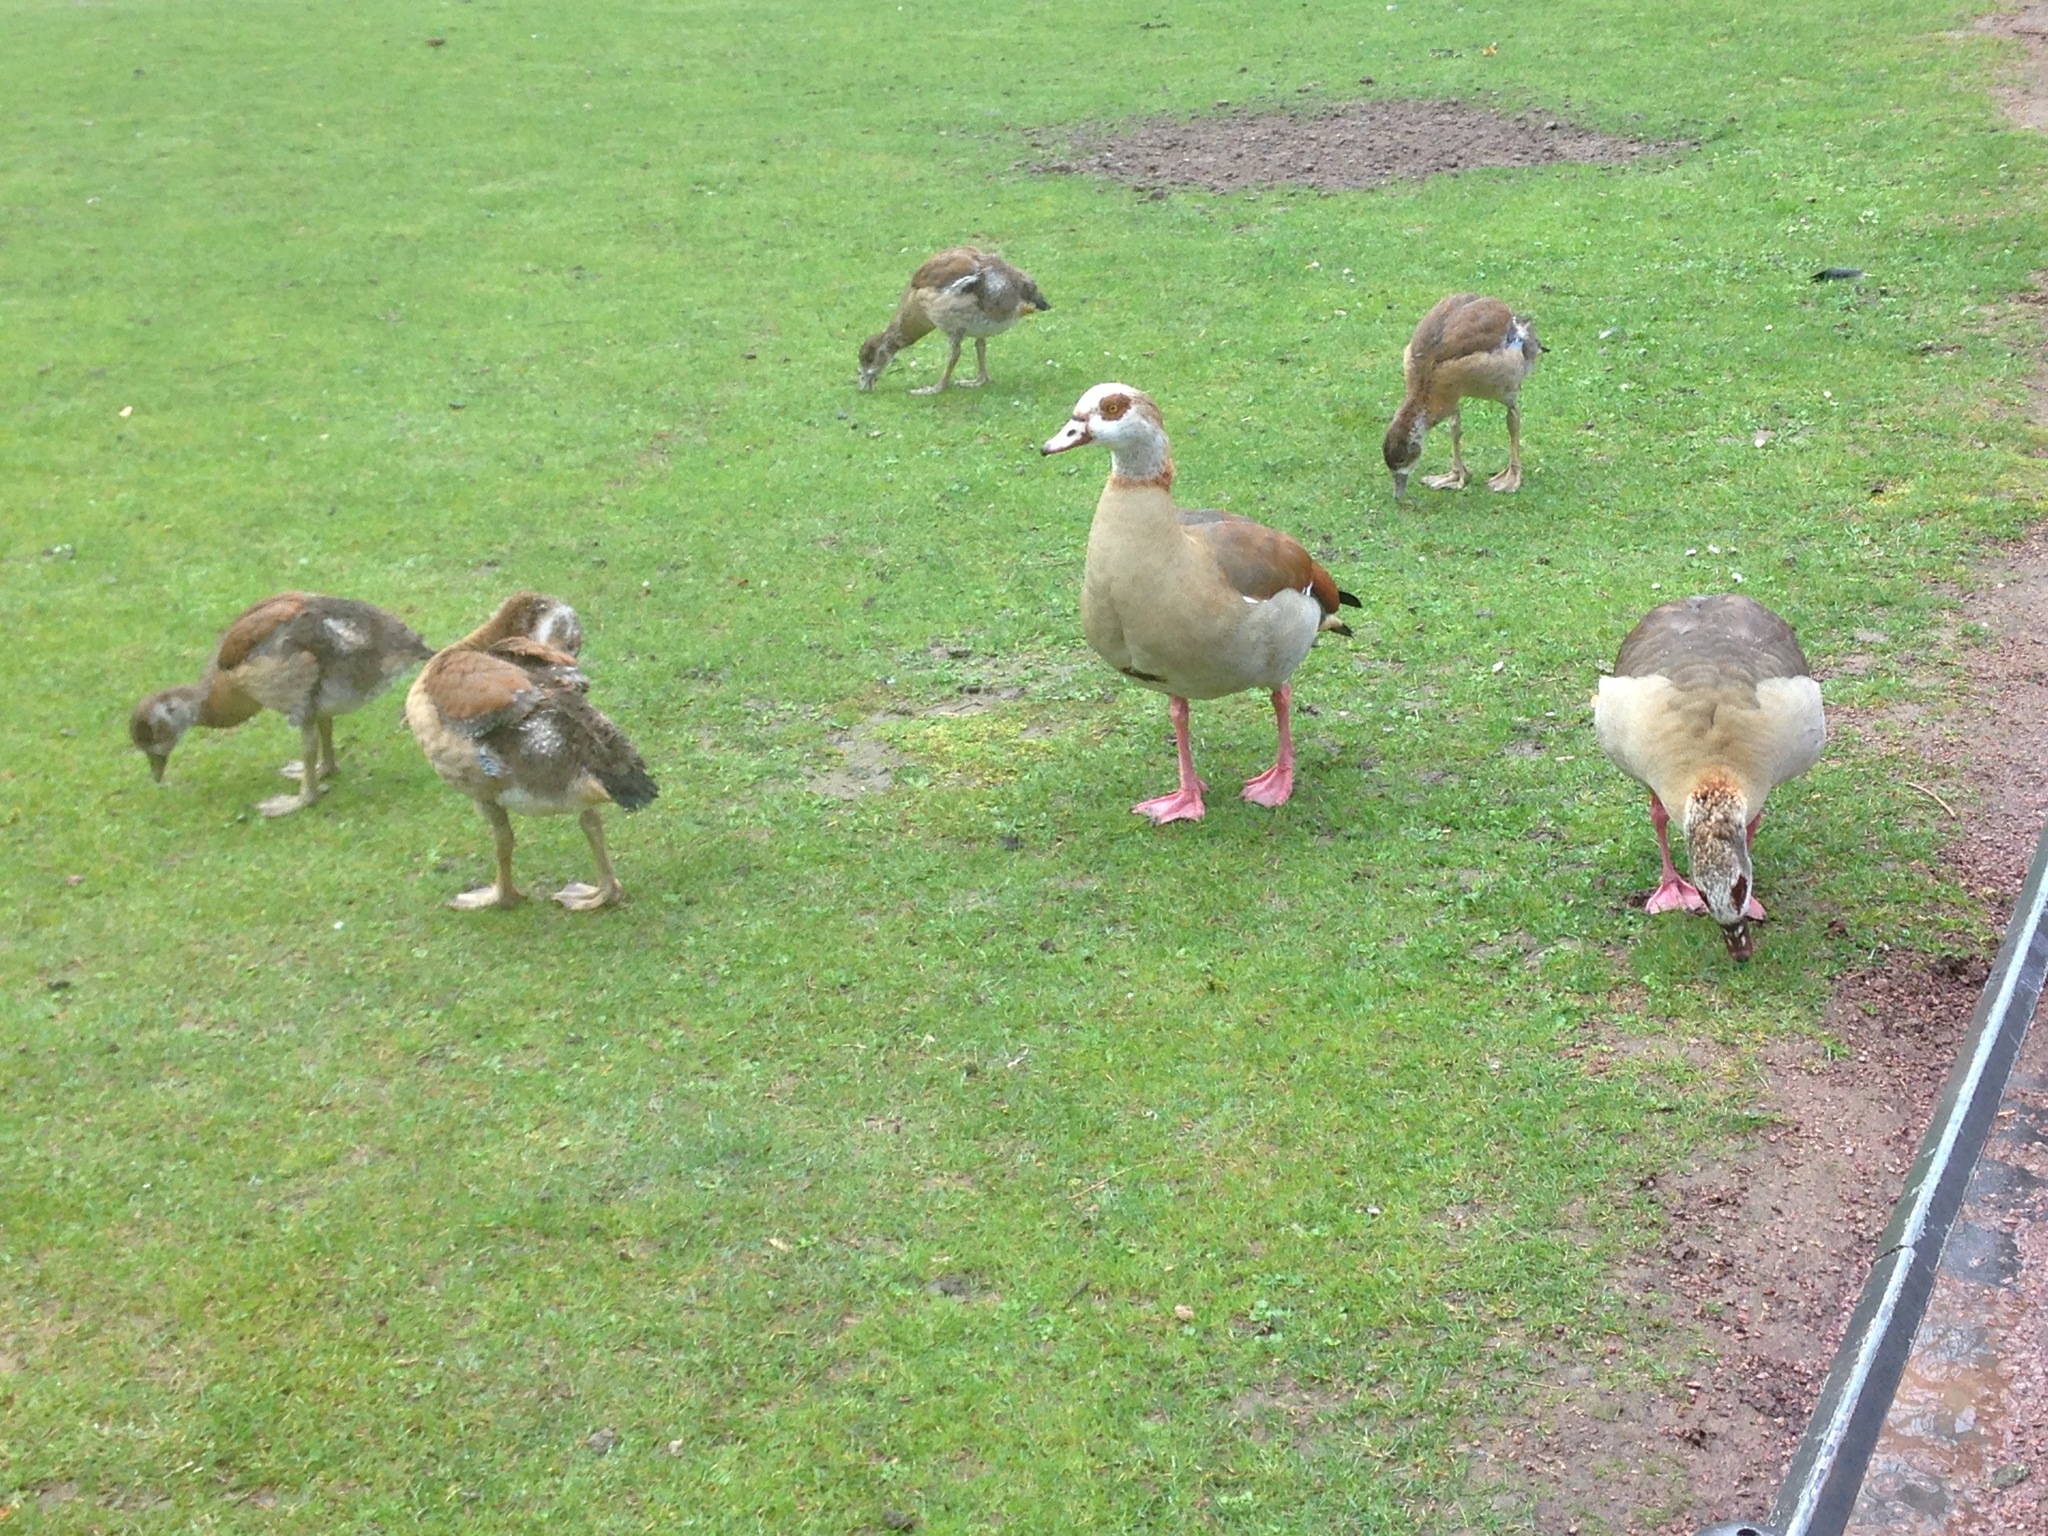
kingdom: Animalia
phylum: Chordata
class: Aves
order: Anseriformes
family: Anatidae
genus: Alopochen
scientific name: Alopochen aegyptiaca
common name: Egyptian goose
